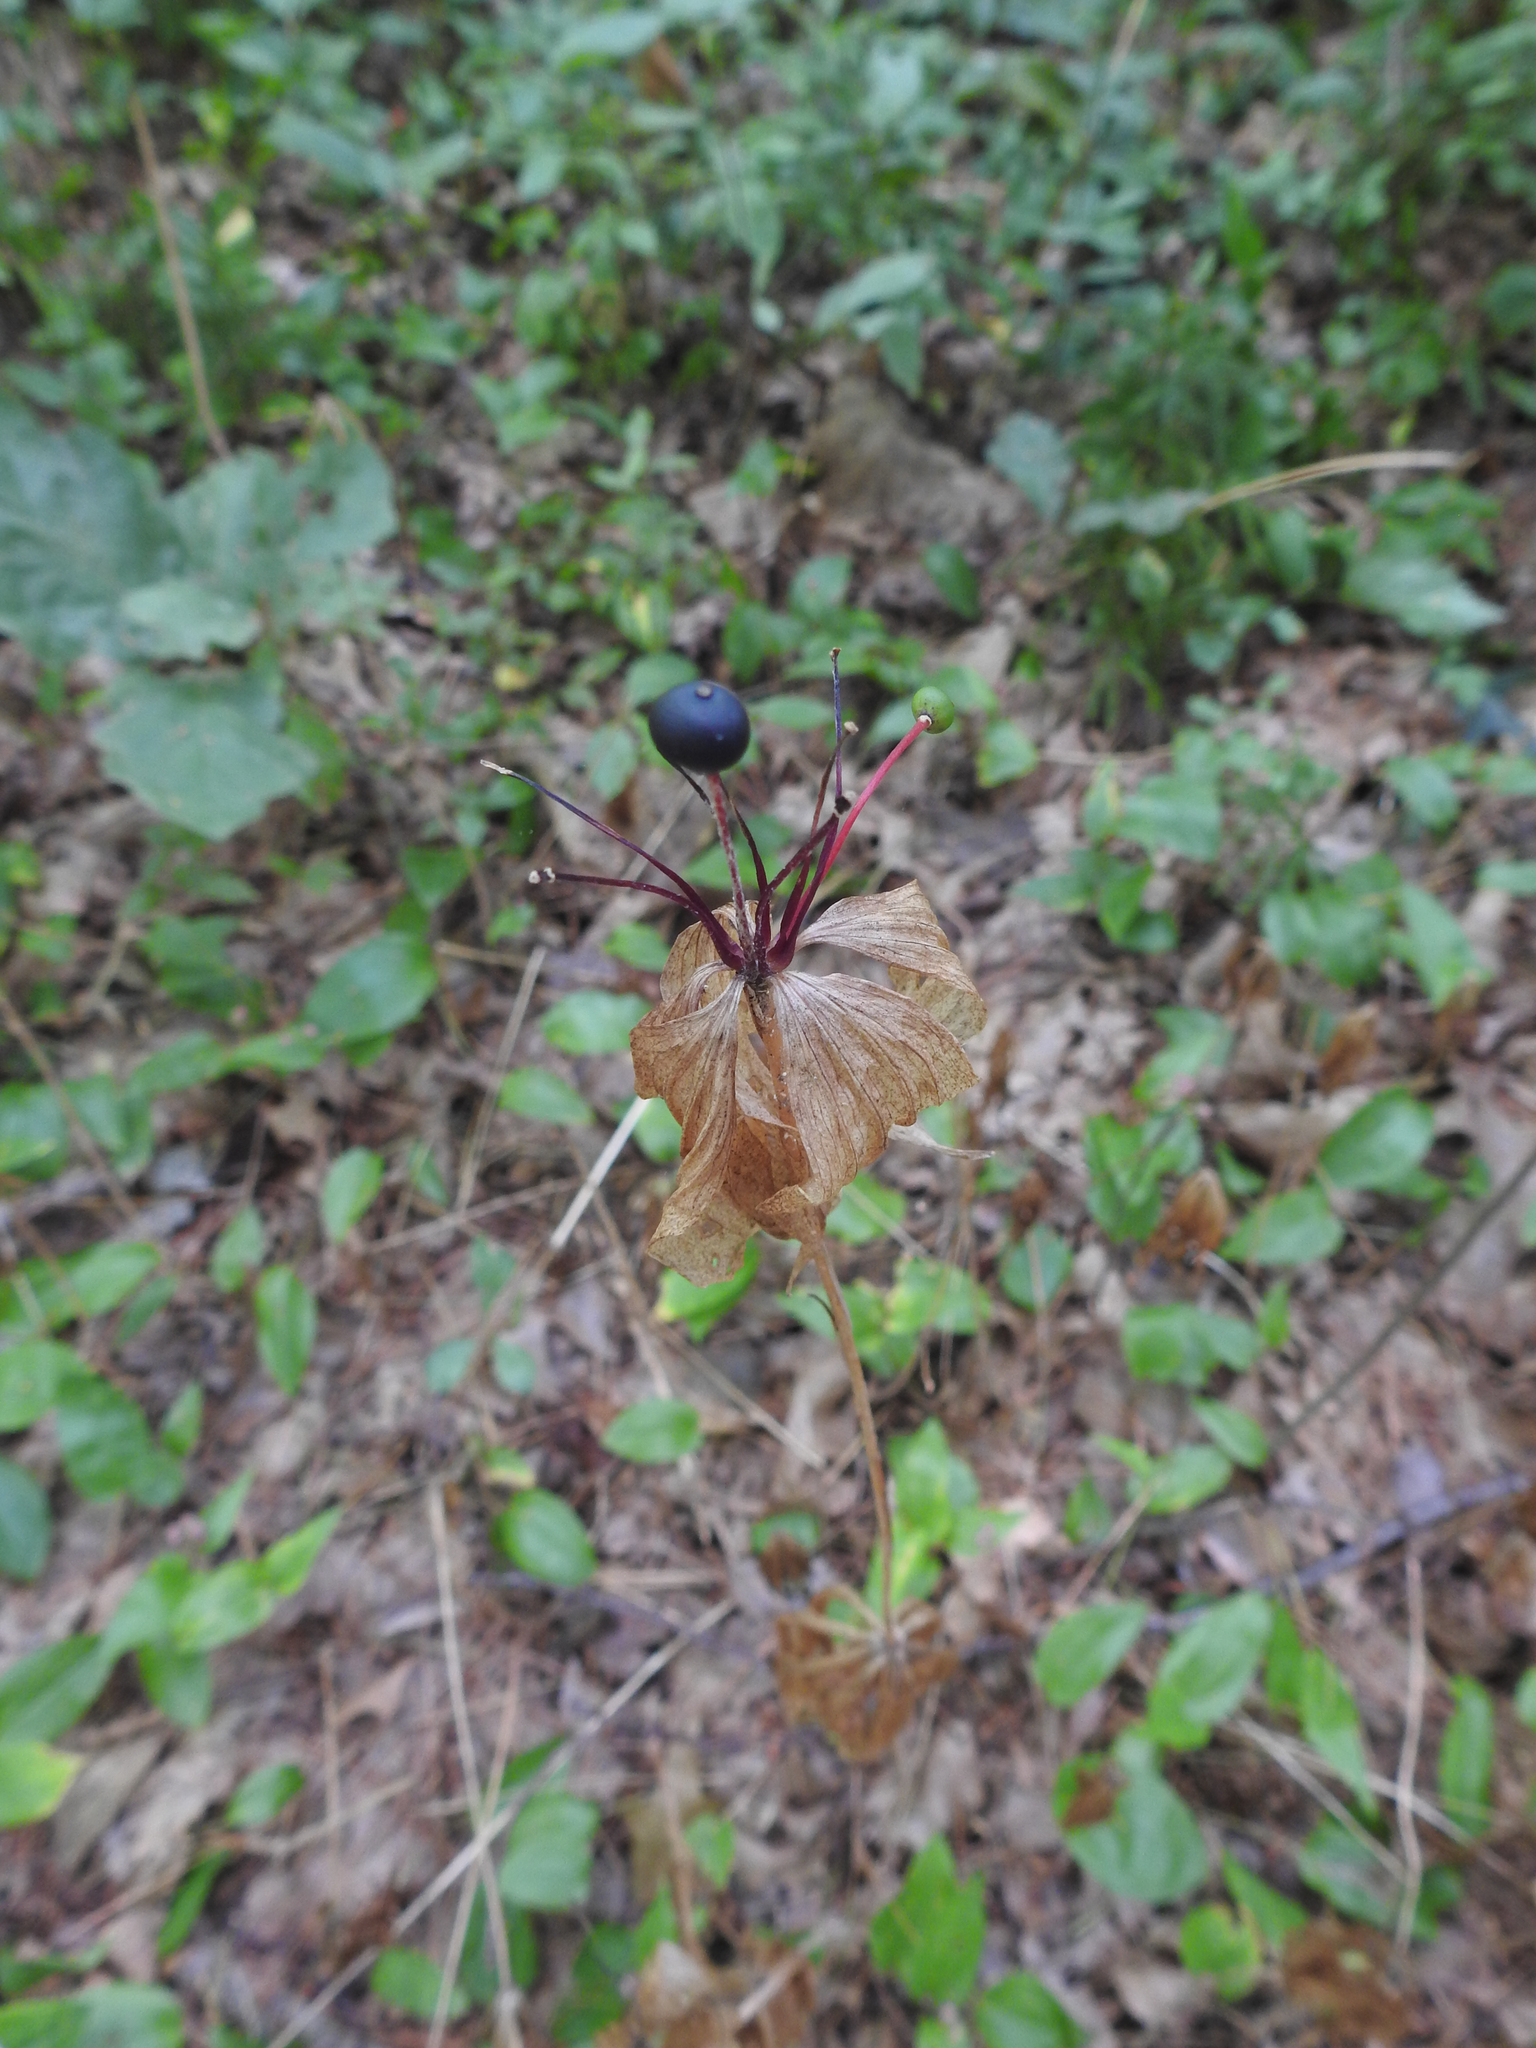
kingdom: Plantae
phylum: Tracheophyta
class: Liliopsida
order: Liliales
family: Liliaceae
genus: Medeola
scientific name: Medeola virginiana
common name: Indian cucumber-root
